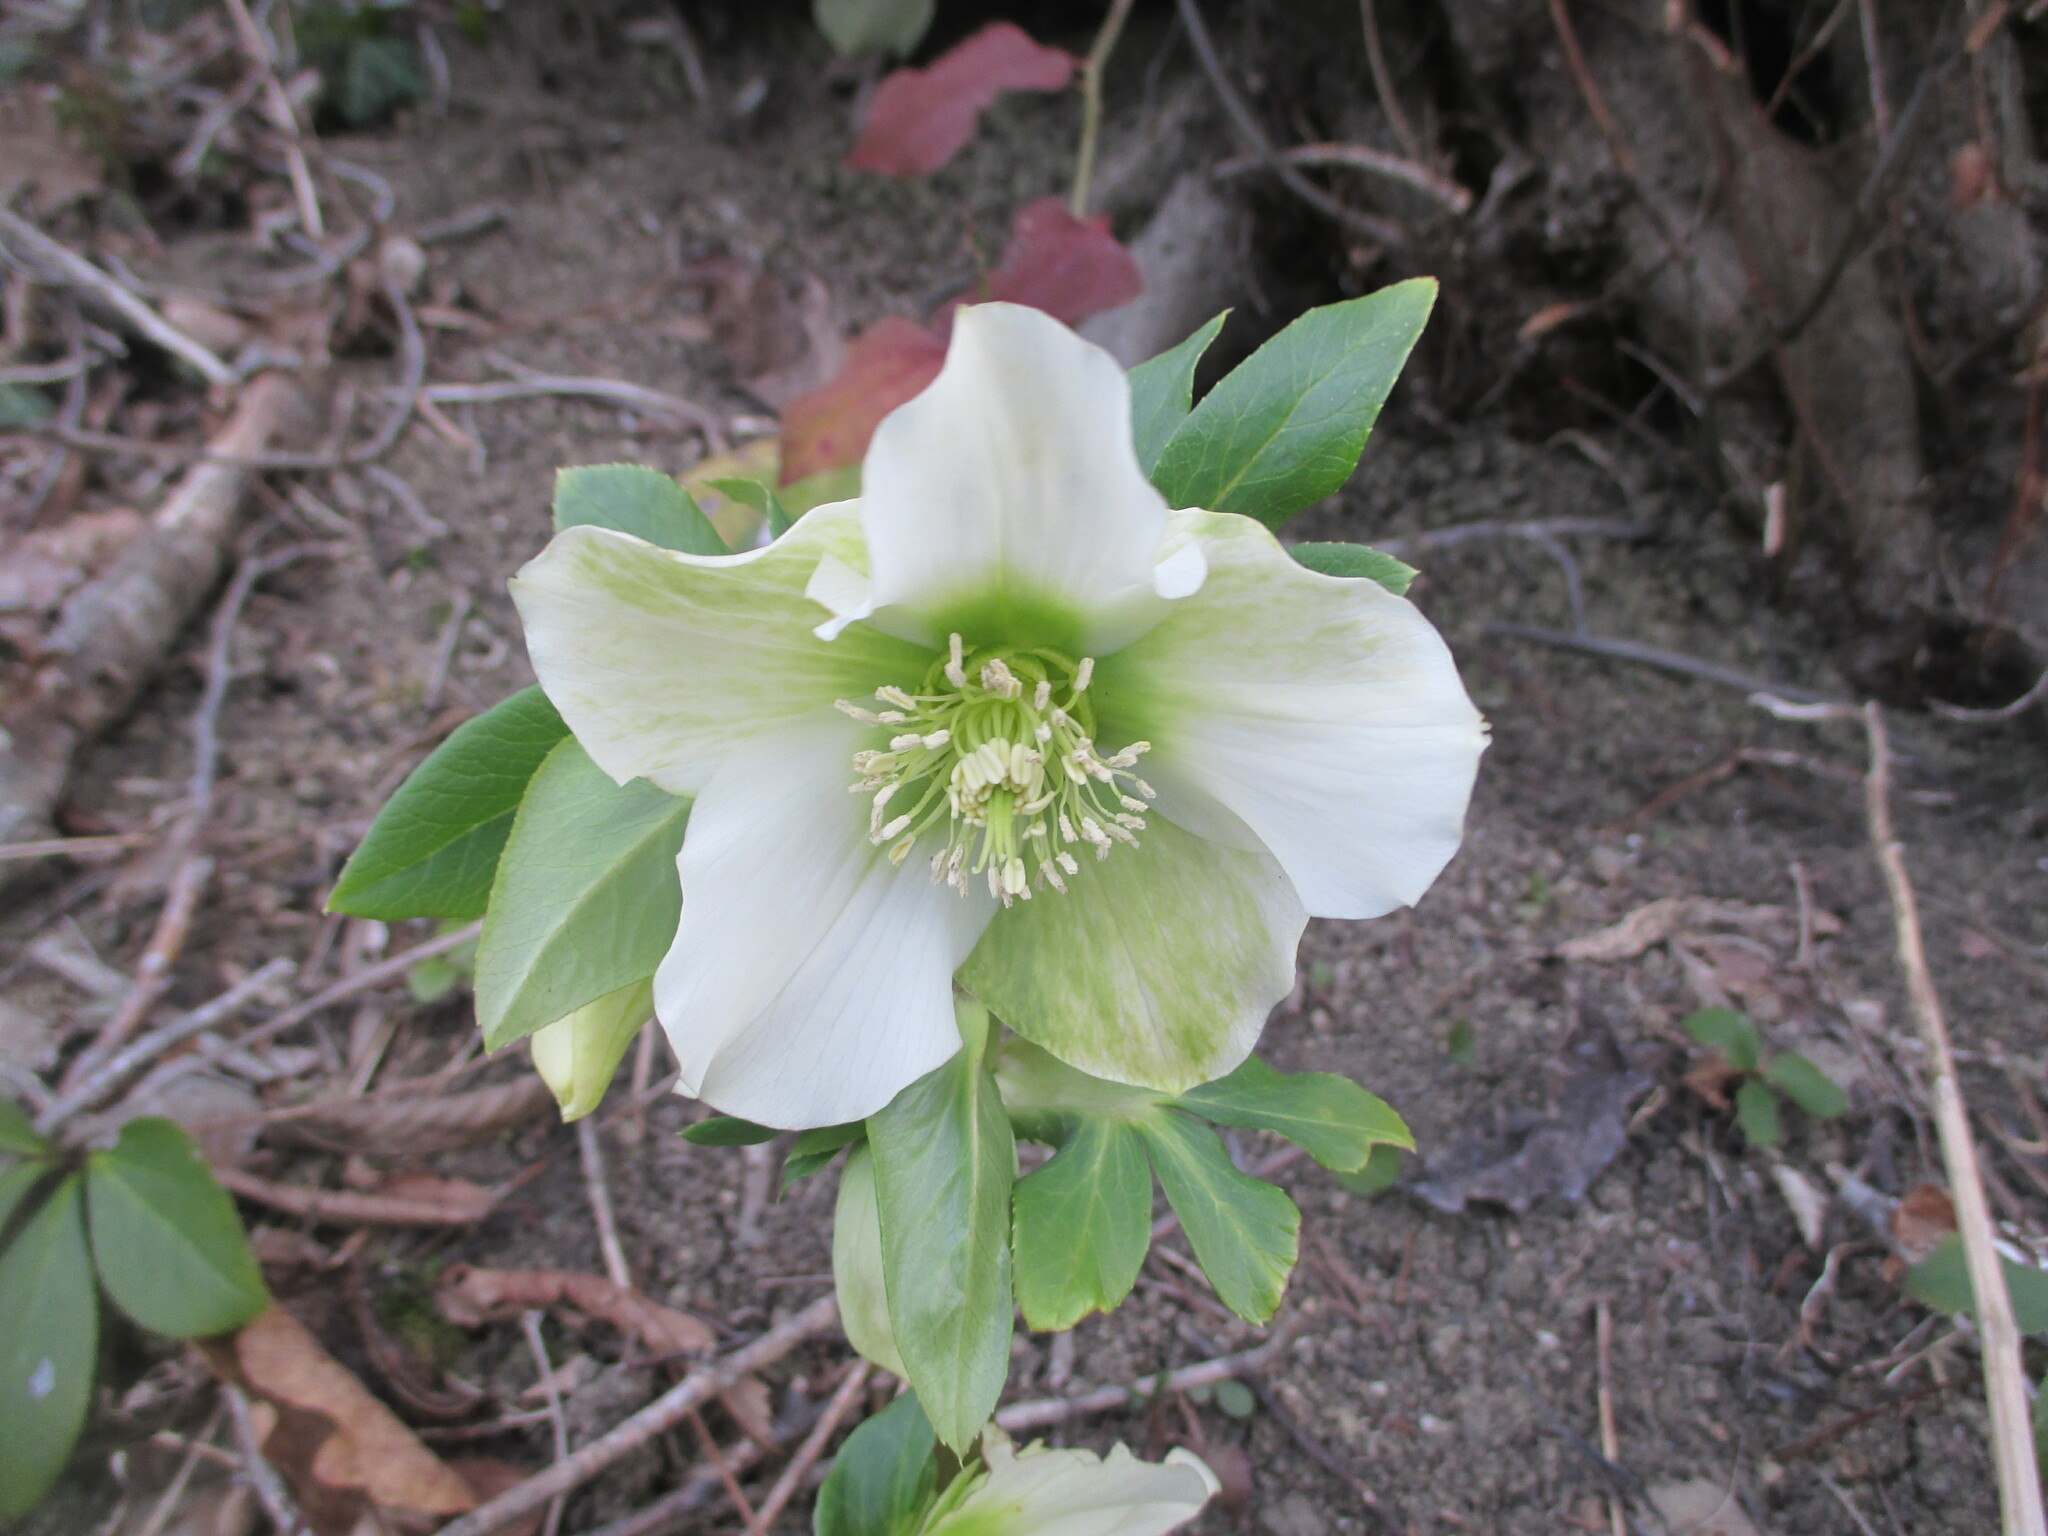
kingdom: Plantae
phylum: Tracheophyta
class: Magnoliopsida
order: Ranunculales
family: Ranunculaceae
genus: Helleborus
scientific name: Helleborus orientalis
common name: Lenten-rose
